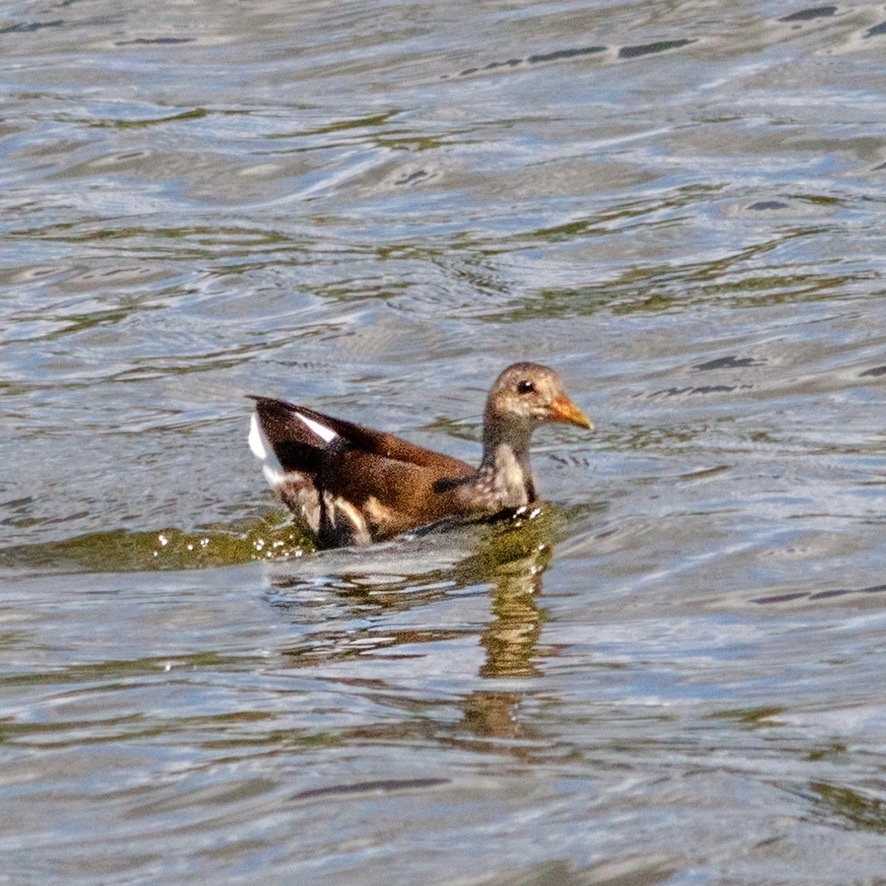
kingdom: Animalia
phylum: Chordata
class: Aves
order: Gruiformes
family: Rallidae
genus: Gallinula
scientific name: Gallinula chloropus
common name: Common moorhen
